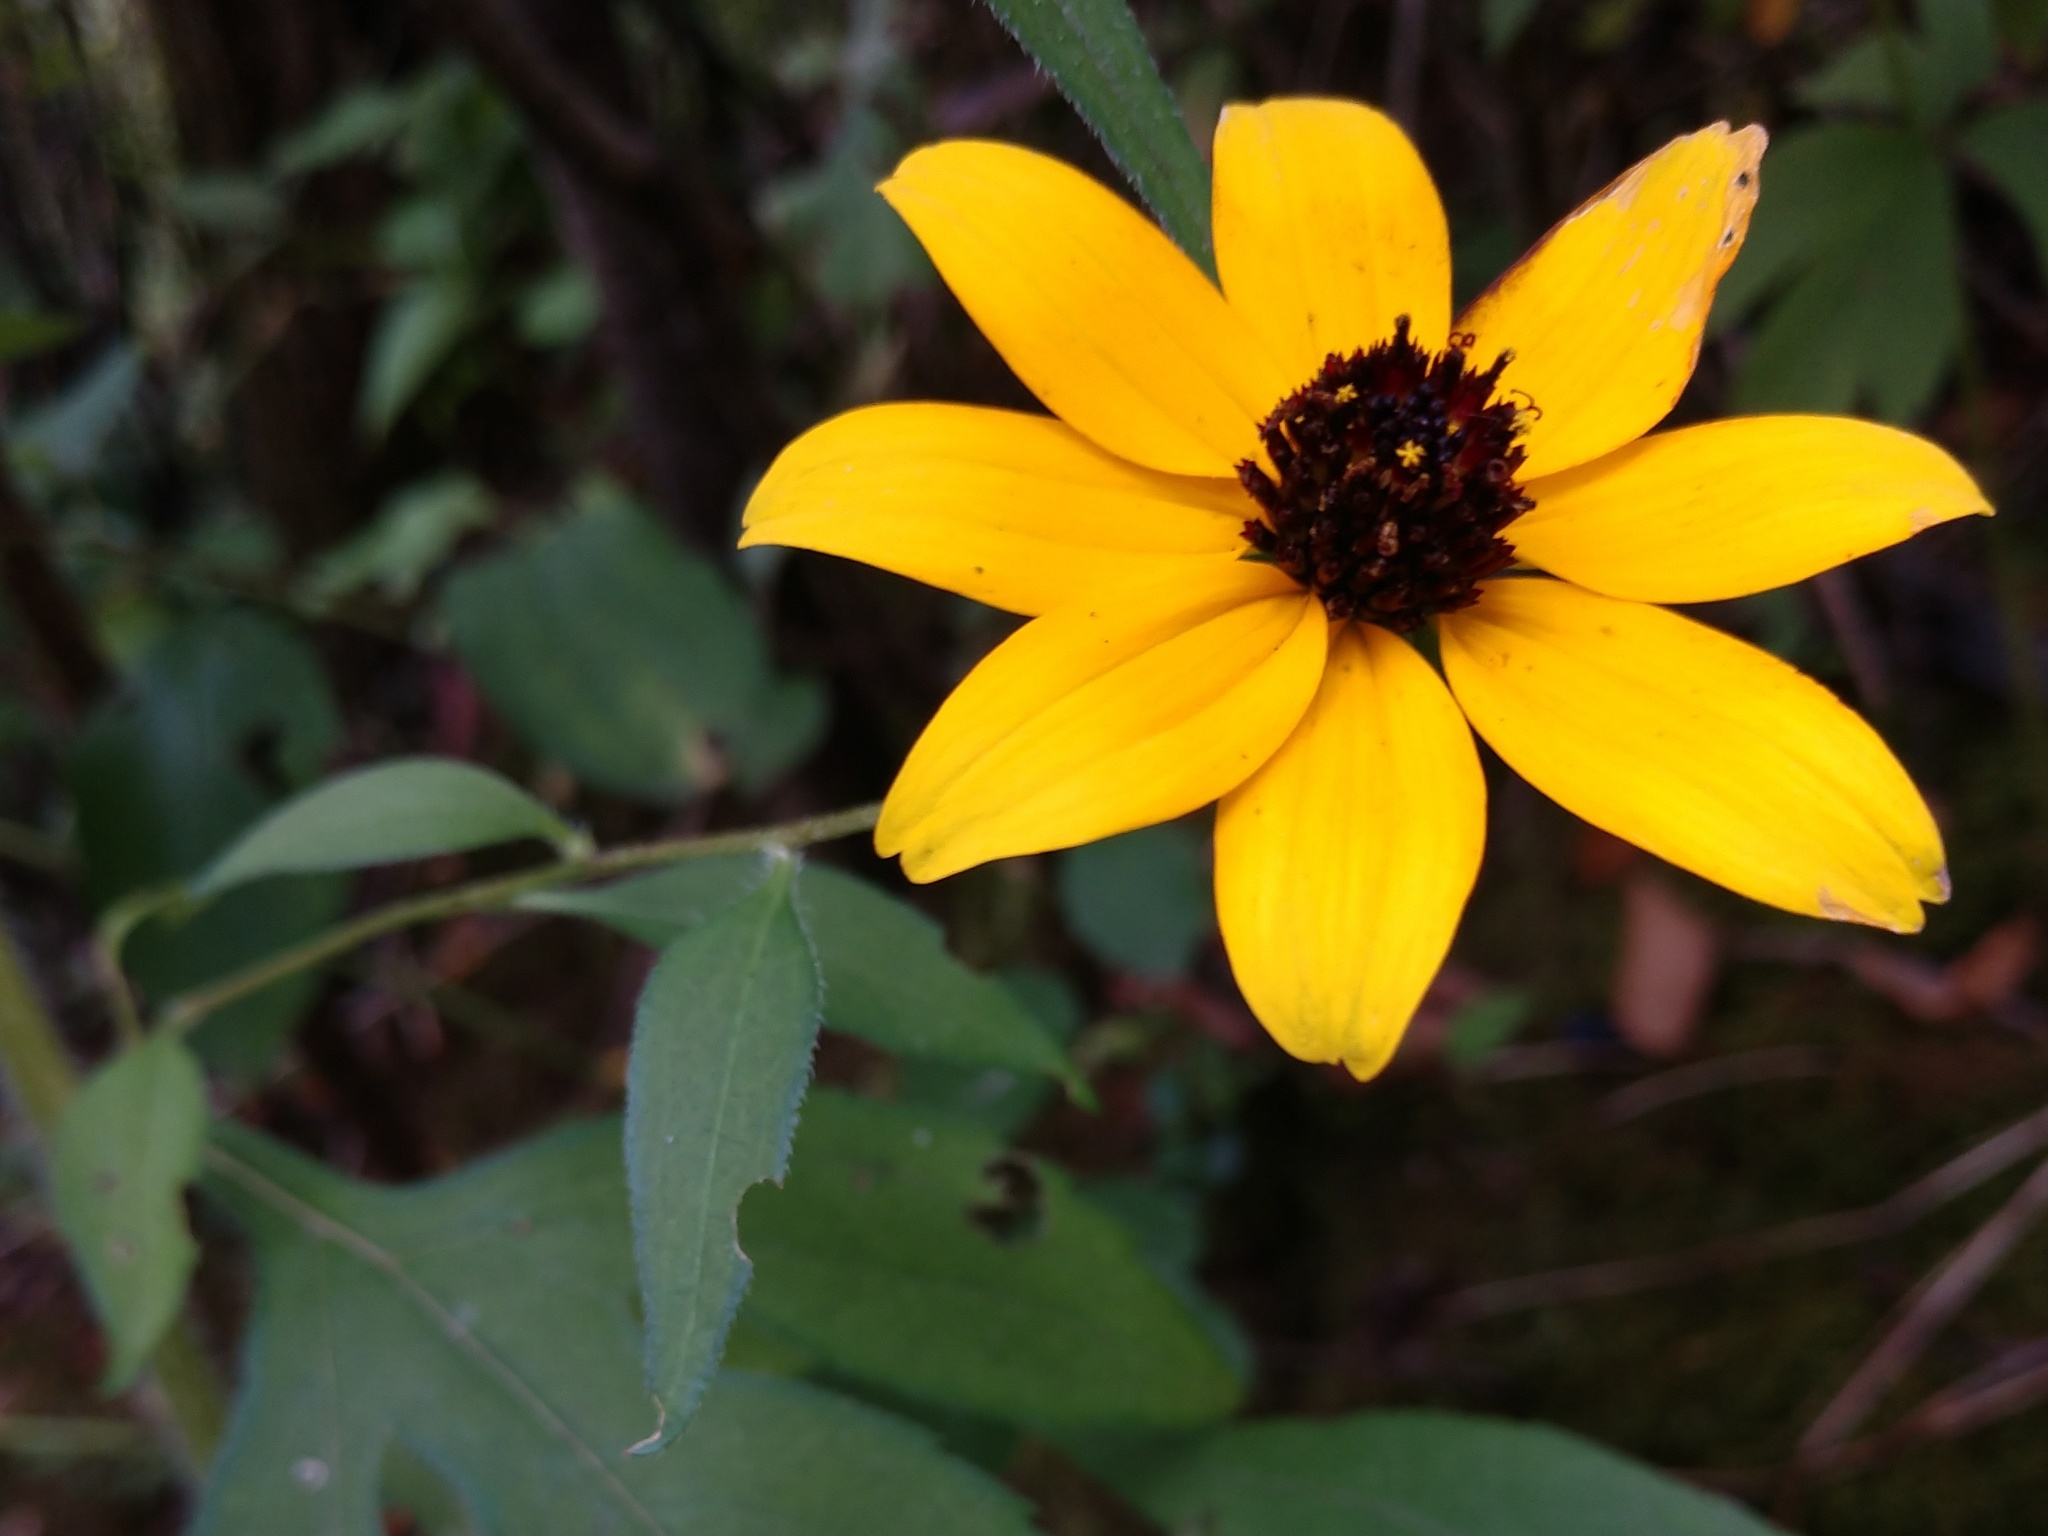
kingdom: Plantae
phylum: Tracheophyta
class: Magnoliopsida
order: Asterales
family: Asteraceae
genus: Rudbeckia
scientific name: Rudbeckia triloba
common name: Thin-leaved coneflower
